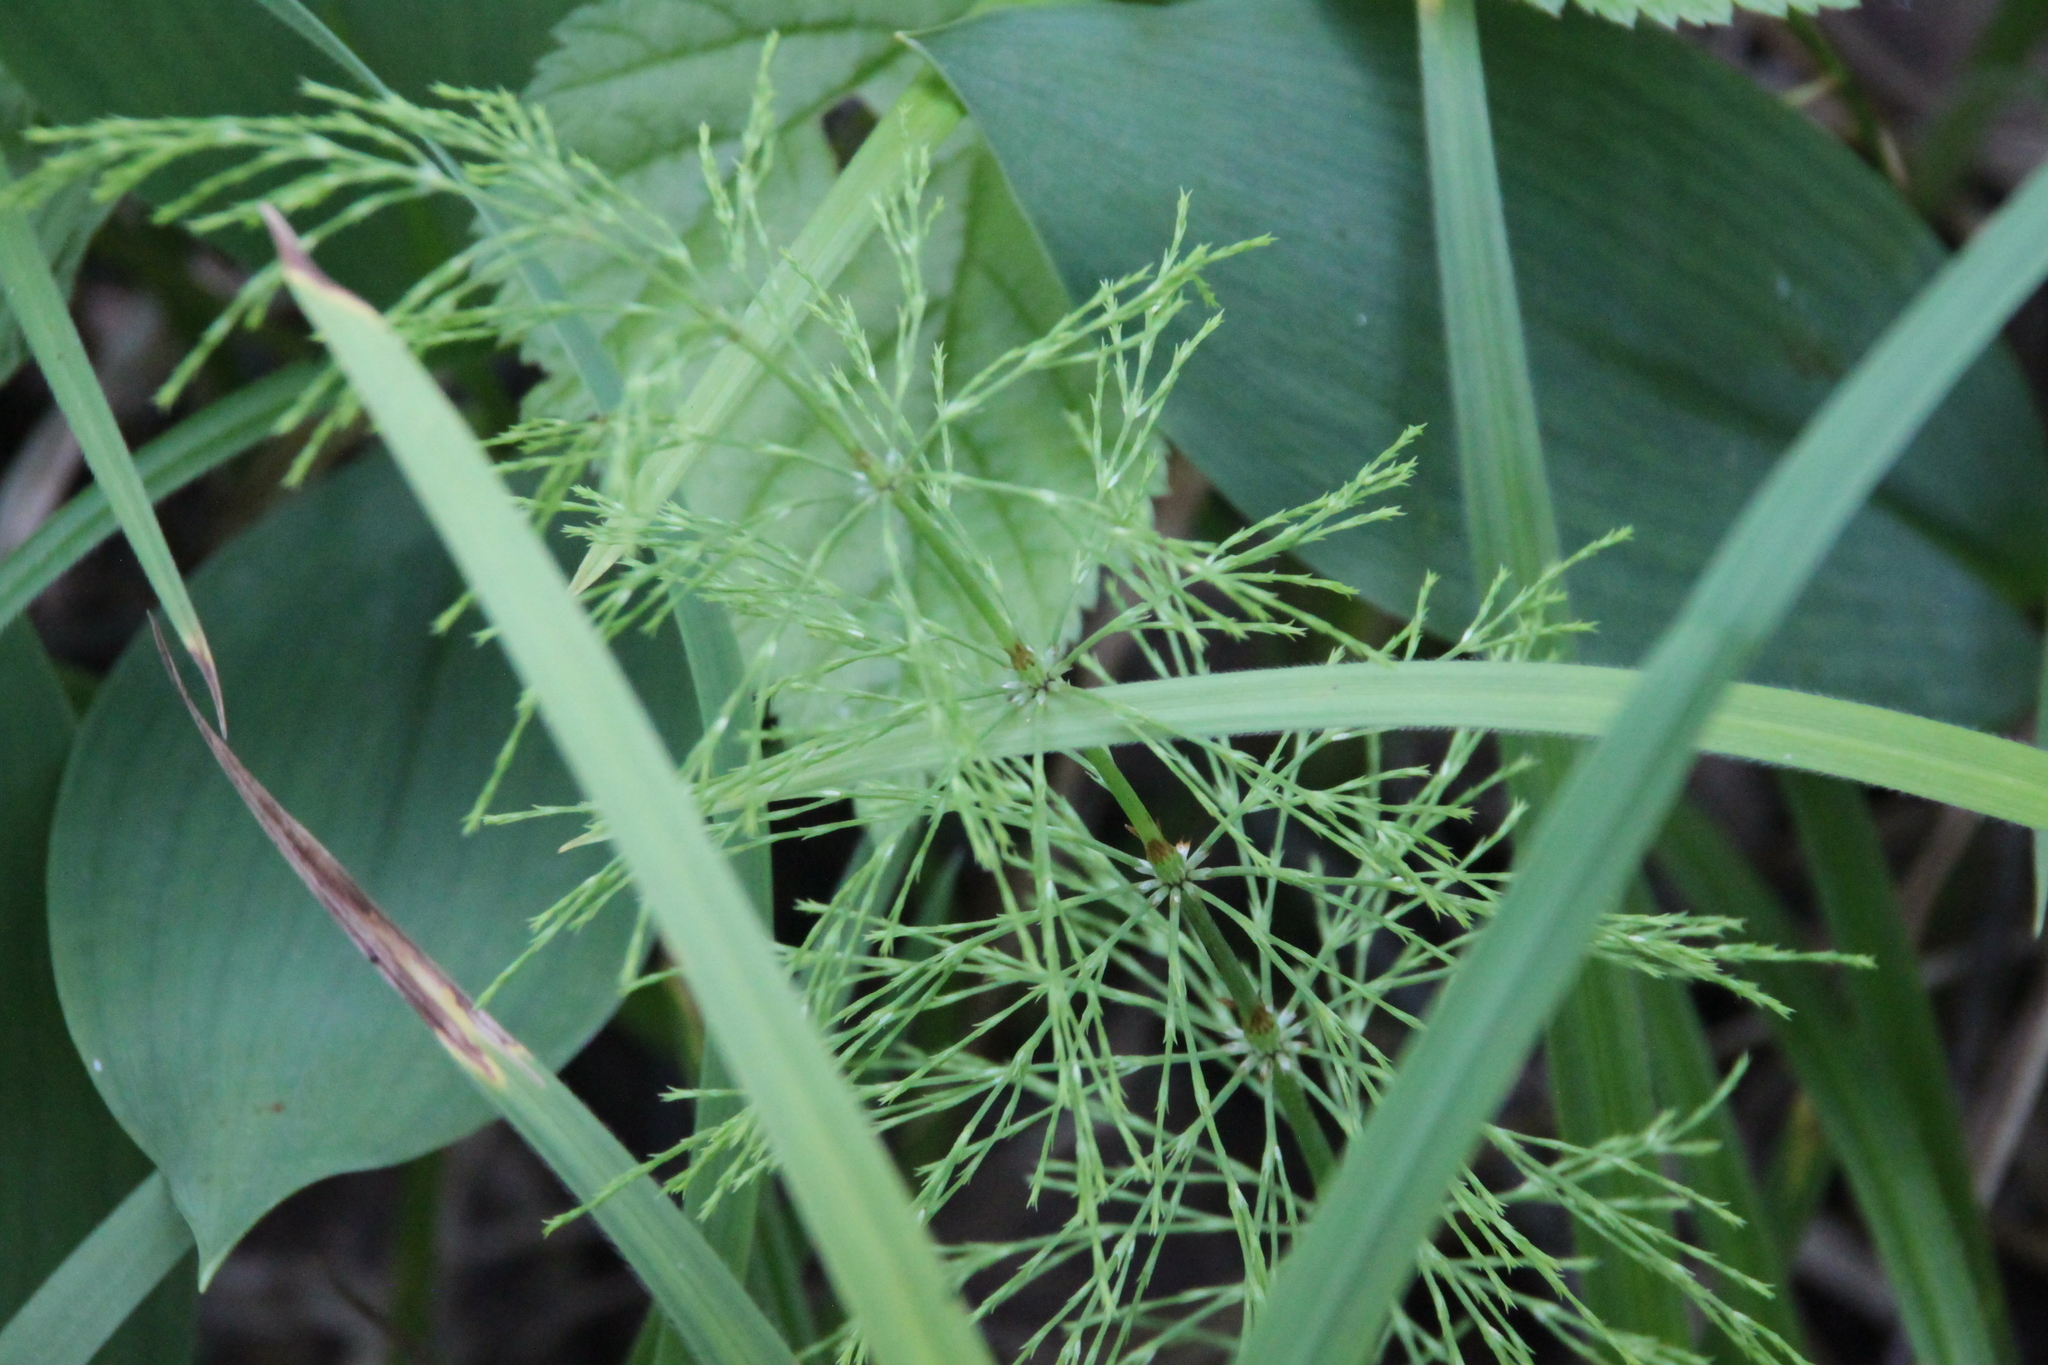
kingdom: Plantae
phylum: Tracheophyta
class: Polypodiopsida
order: Equisetales
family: Equisetaceae
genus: Equisetum
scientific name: Equisetum sylvaticum
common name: Wood horsetail
